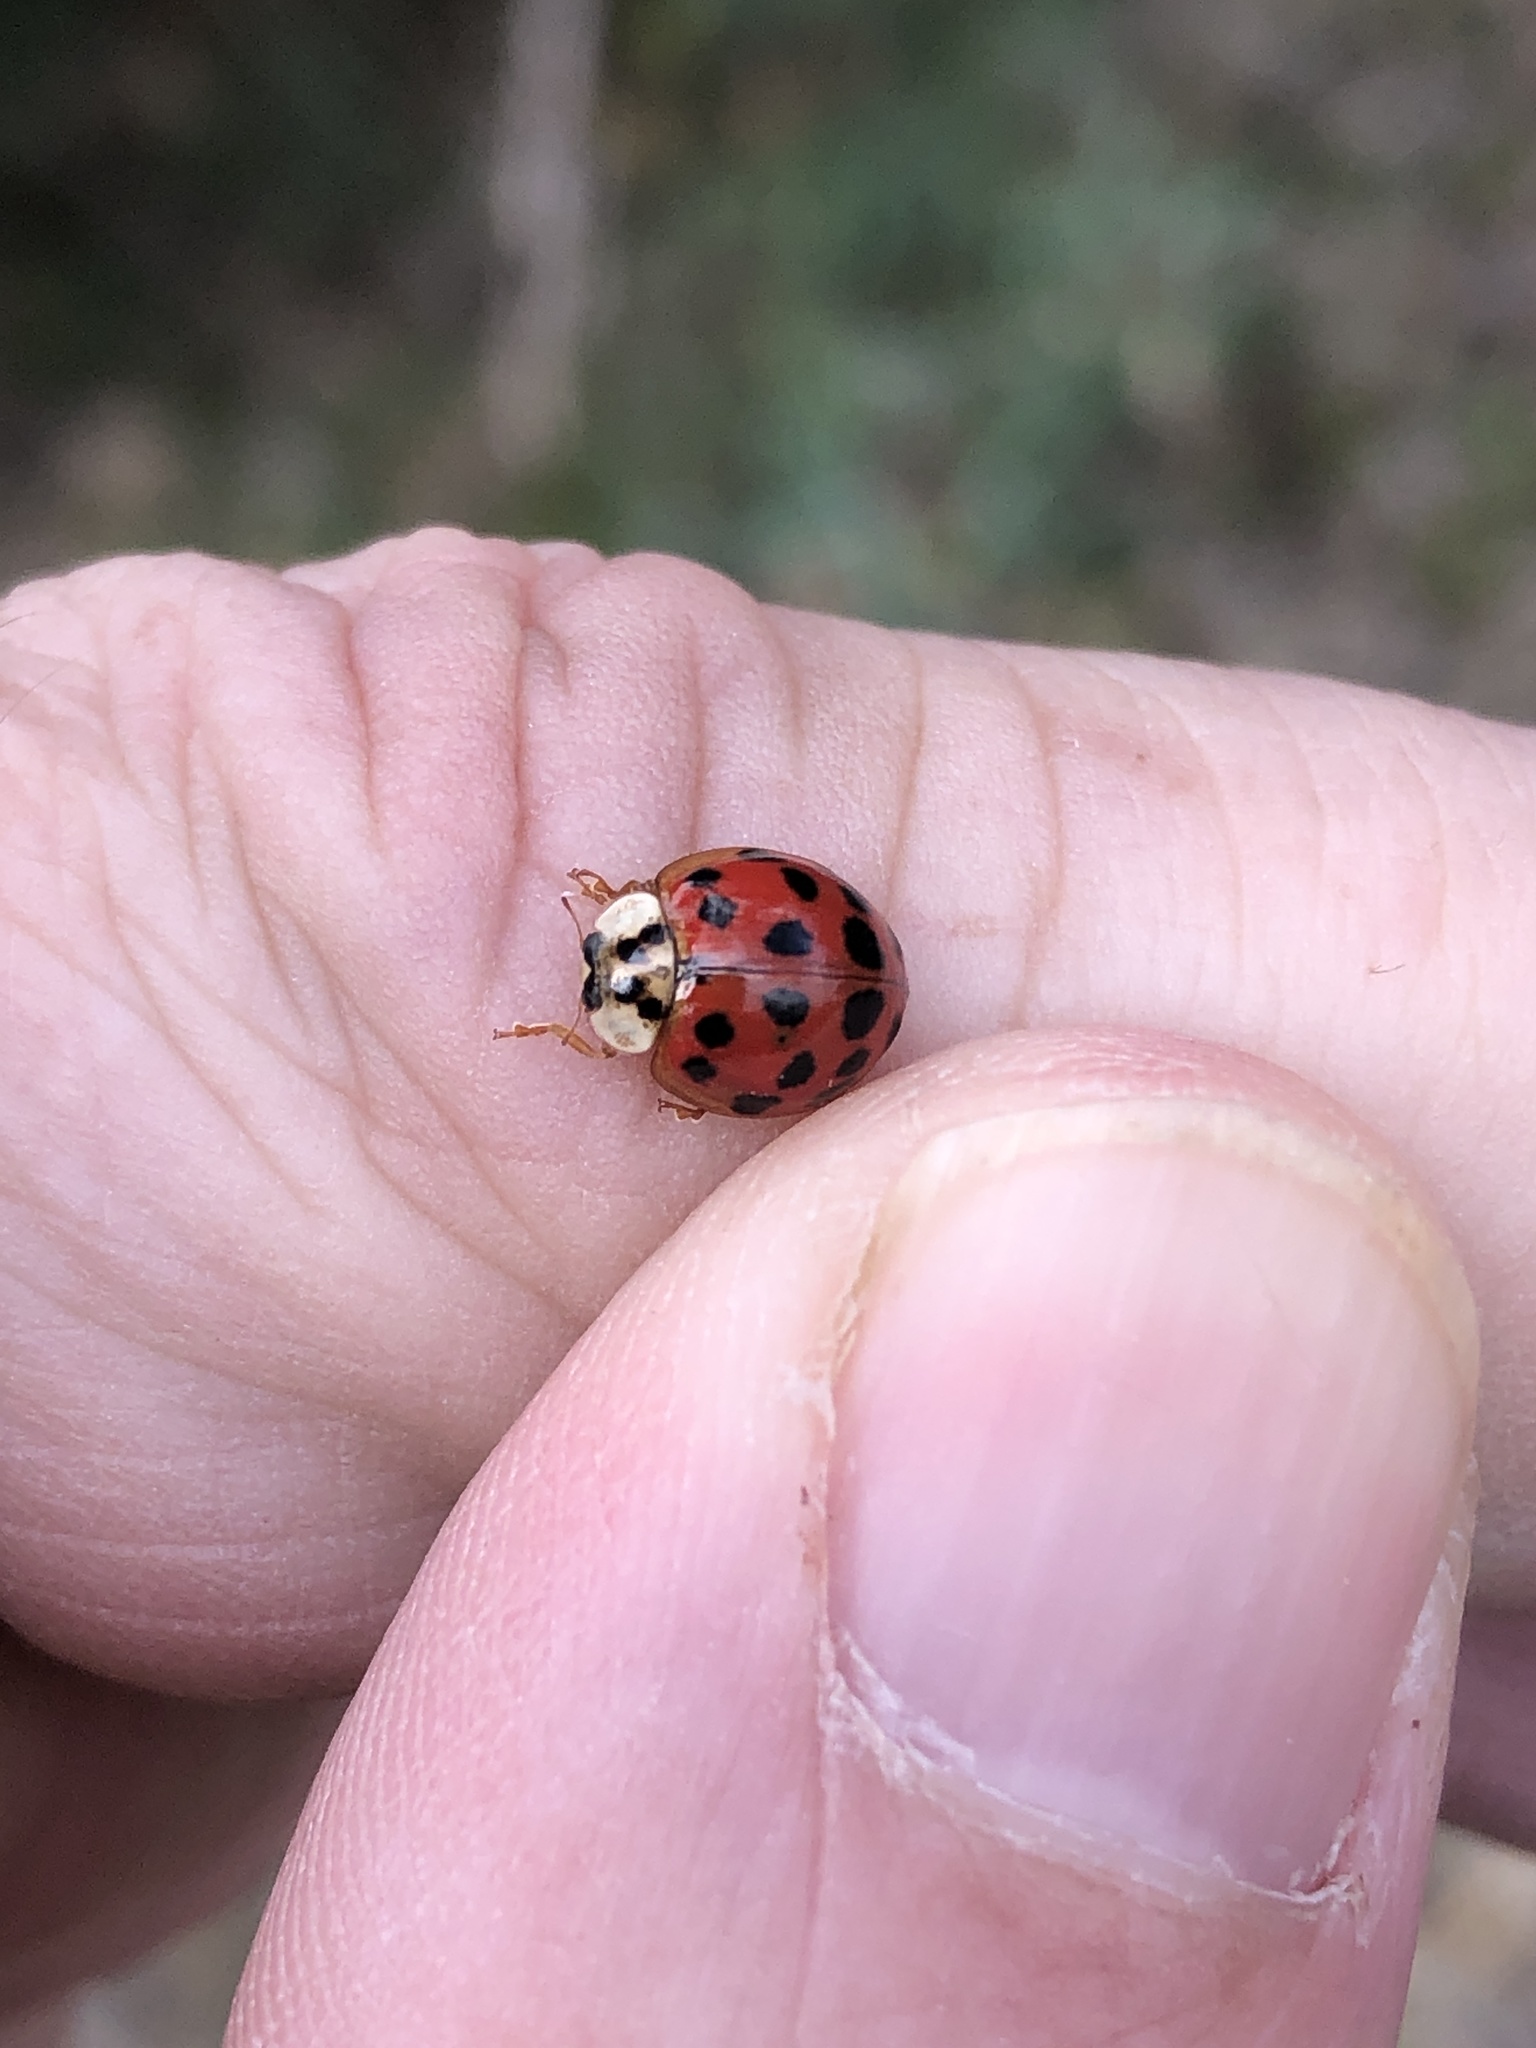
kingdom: Animalia
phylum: Arthropoda
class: Insecta
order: Coleoptera
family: Coccinellidae
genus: Harmonia
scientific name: Harmonia axyridis
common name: Harlequin ladybird
